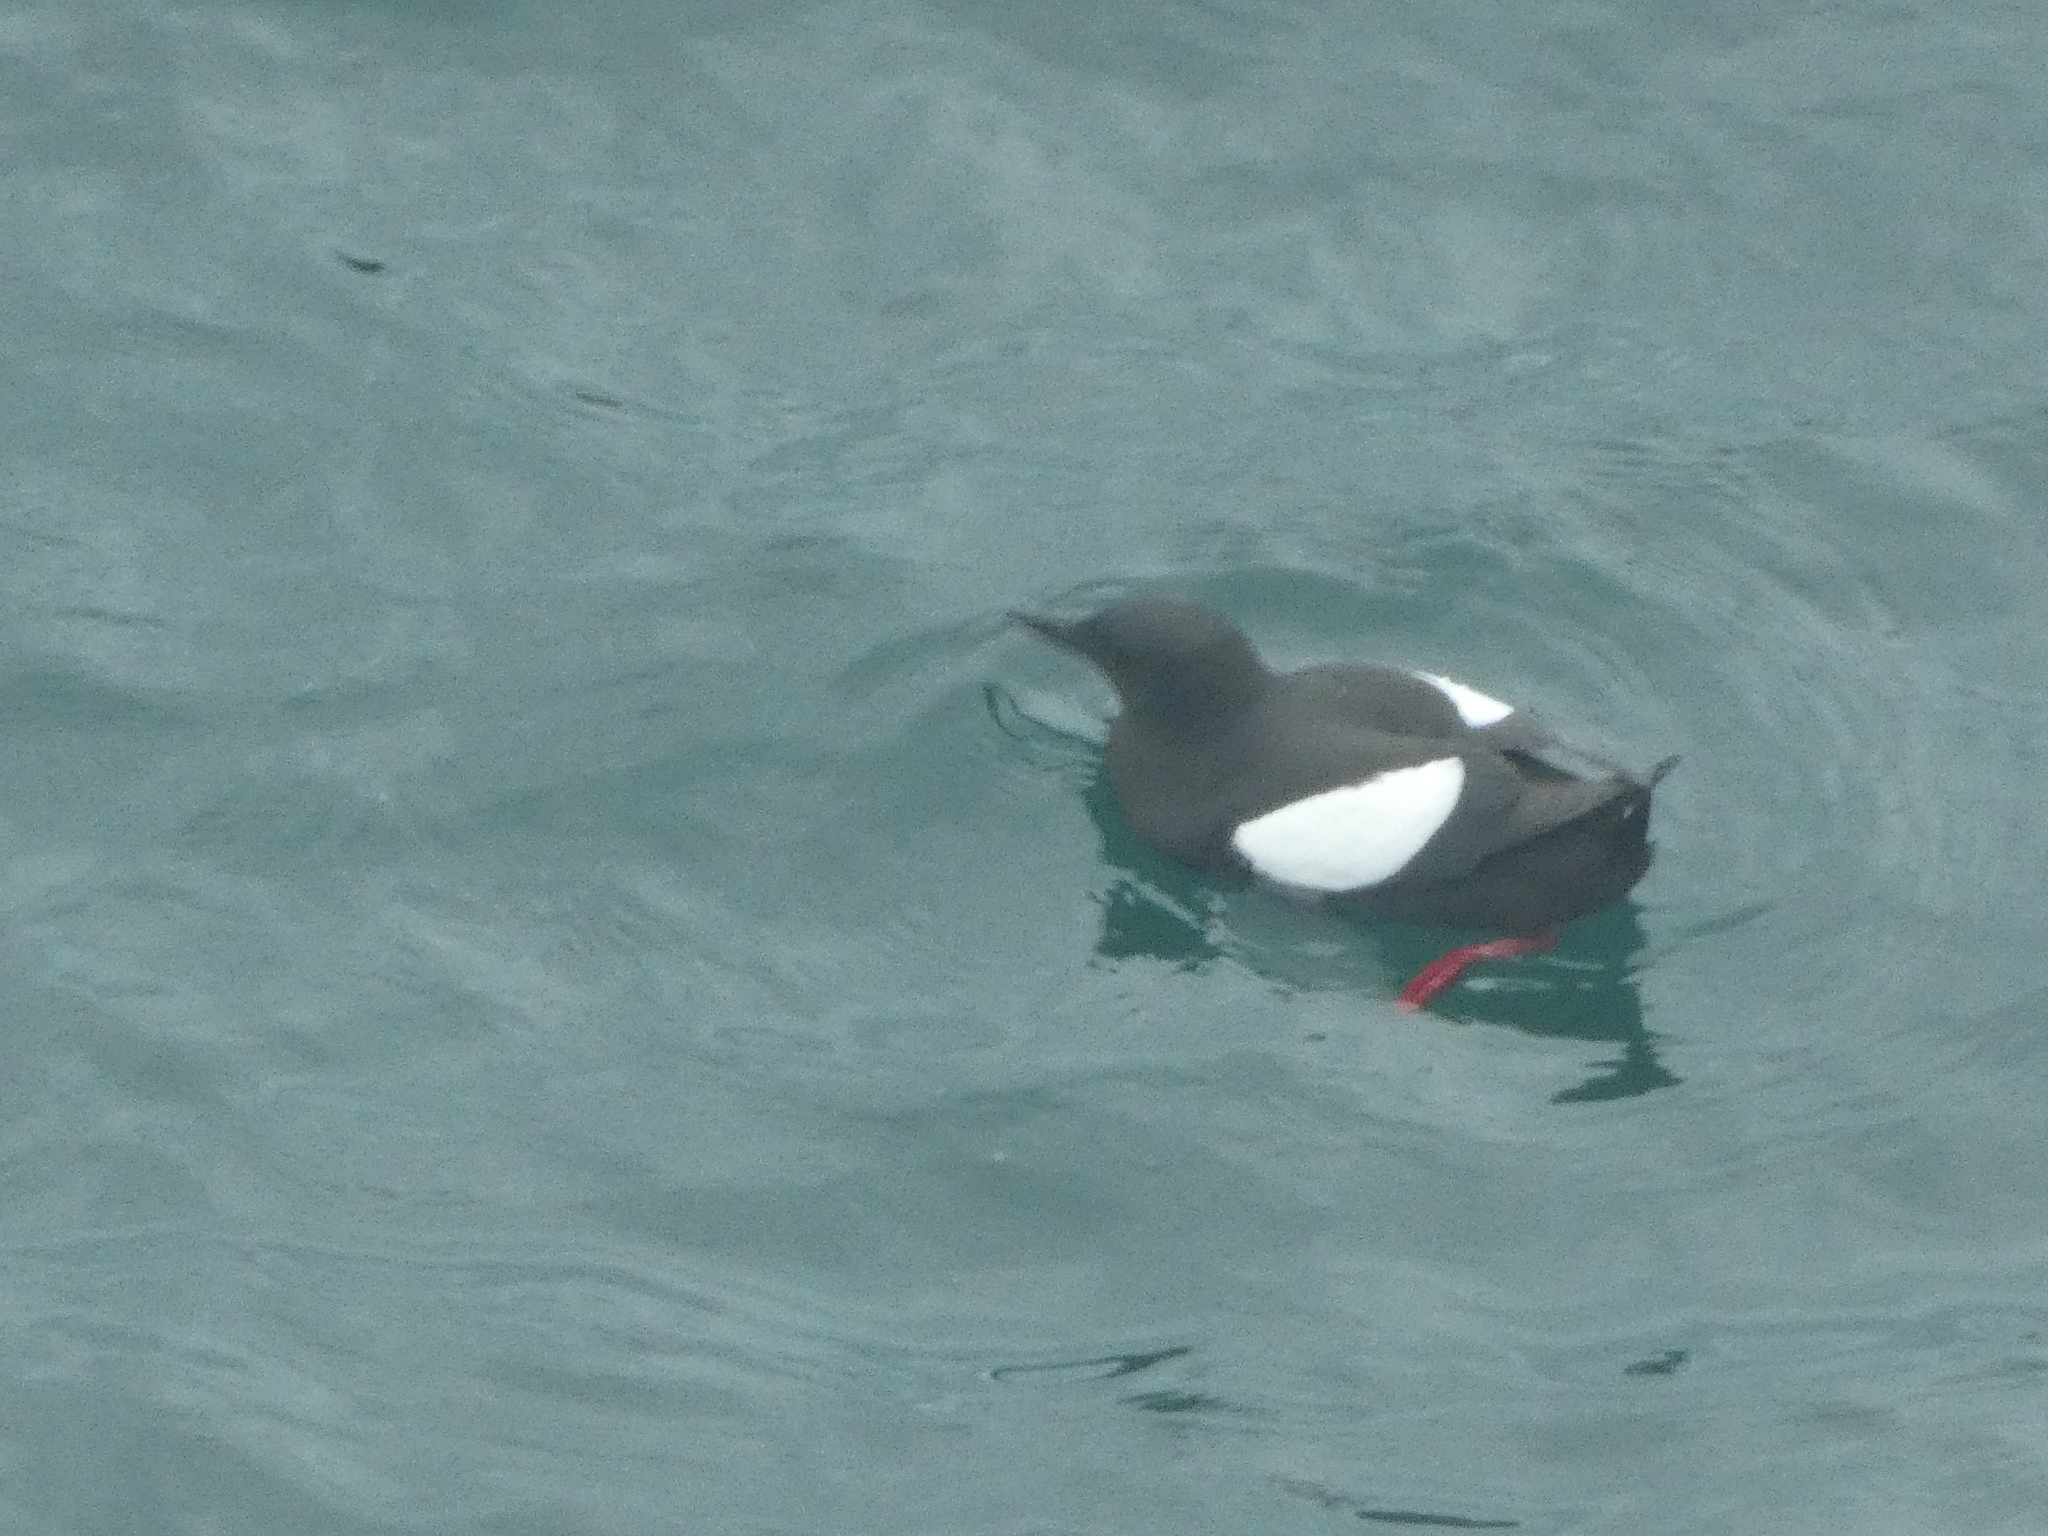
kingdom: Animalia
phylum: Chordata
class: Aves
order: Charadriiformes
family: Alcidae
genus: Cepphus
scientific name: Cepphus grylle
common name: Black guillemot
